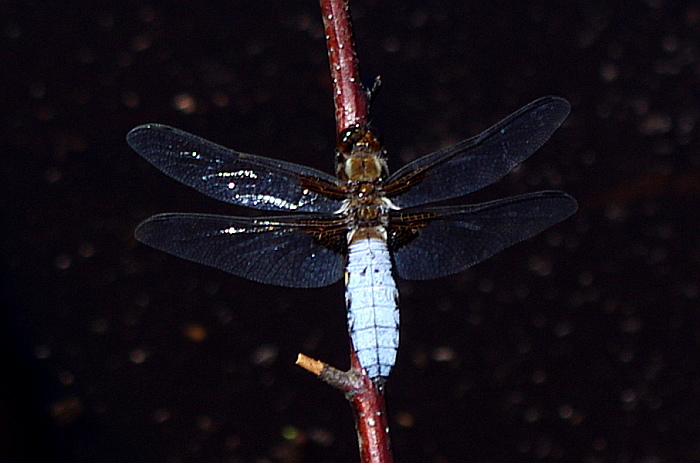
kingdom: Animalia
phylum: Arthropoda
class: Insecta
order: Odonata
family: Libellulidae
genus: Libellula
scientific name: Libellula depressa
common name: Broad-bodied chaser
